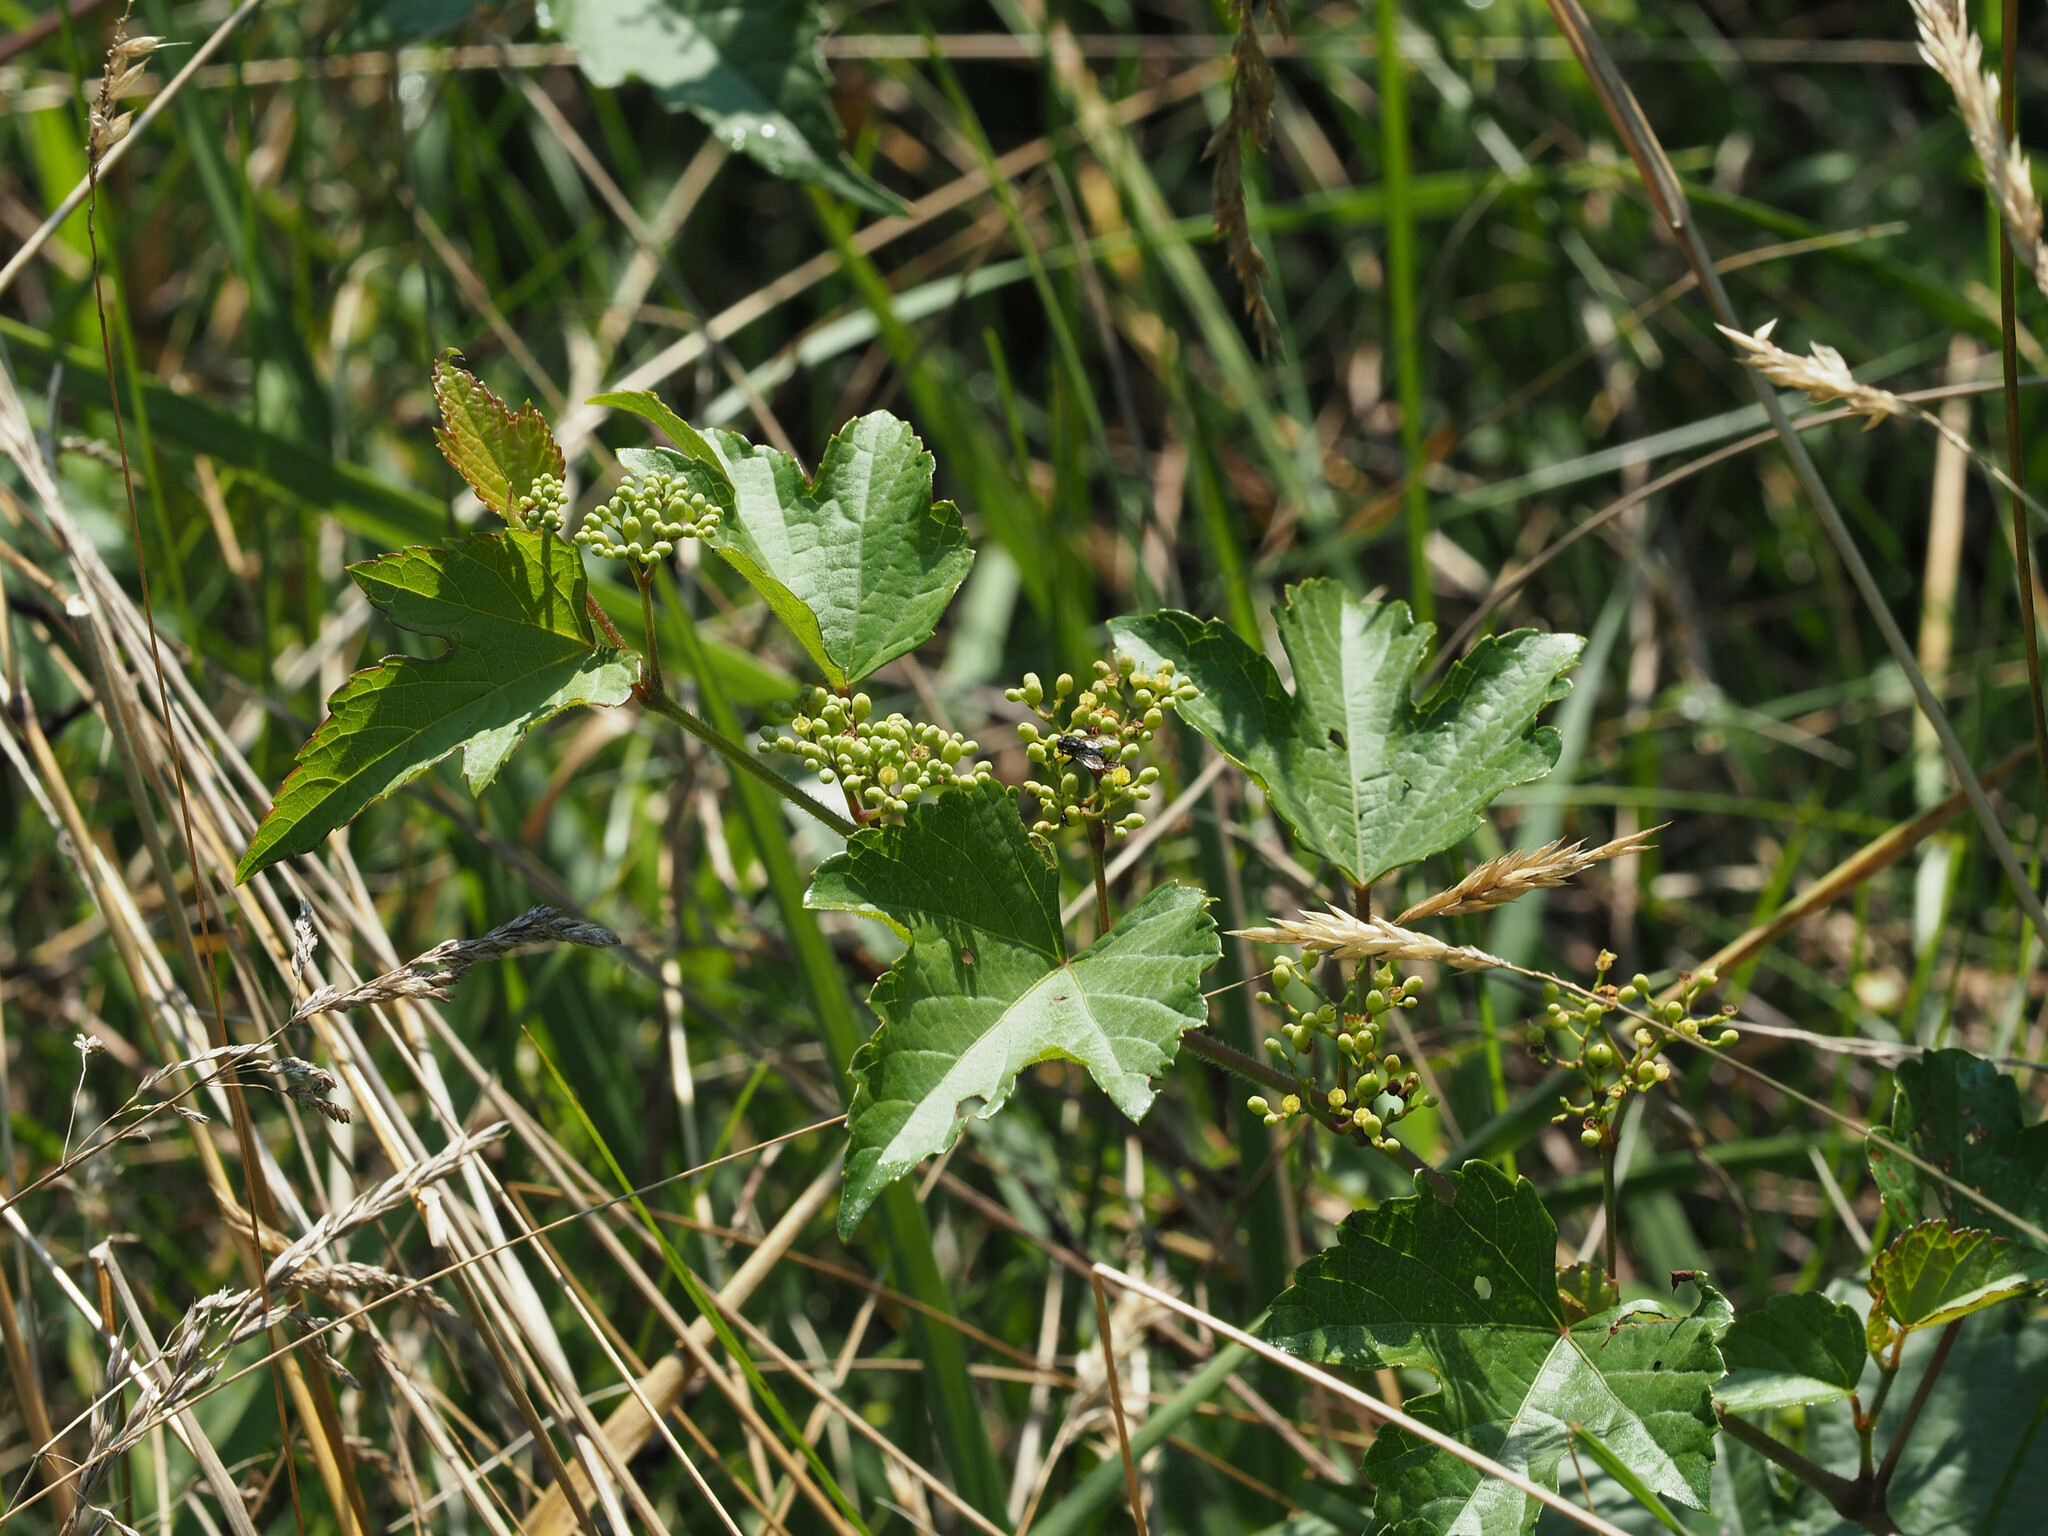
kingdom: Plantae
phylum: Tracheophyta
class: Magnoliopsida
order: Vitales
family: Vitaceae
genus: Ampelopsis
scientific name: Ampelopsis glandulosa
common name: Amur peppervine
